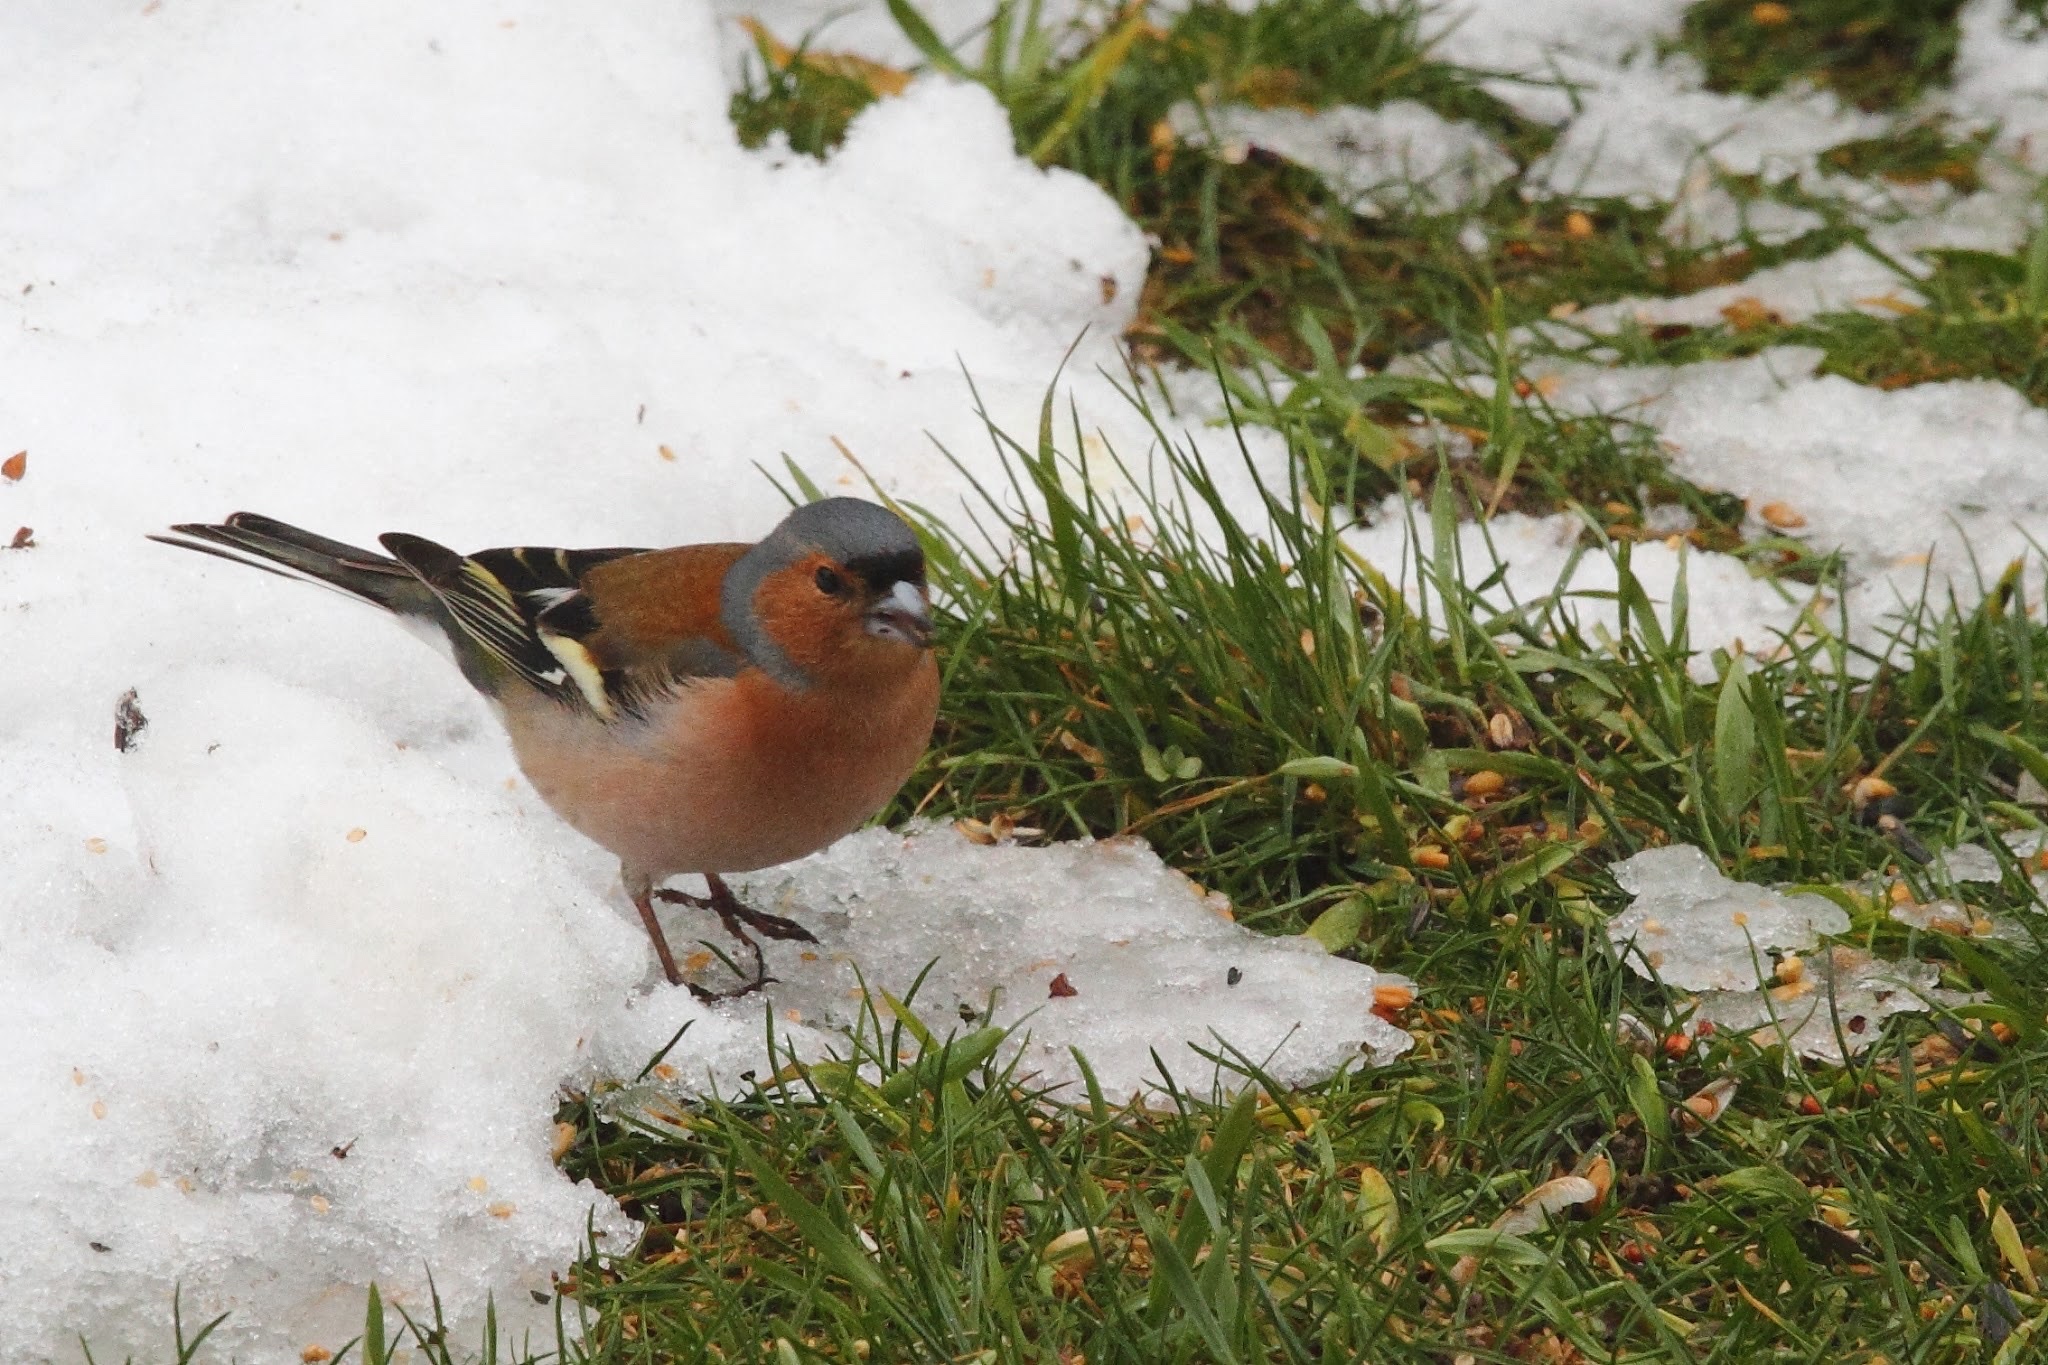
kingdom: Animalia
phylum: Chordata
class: Aves
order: Passeriformes
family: Fringillidae
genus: Fringilla
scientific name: Fringilla coelebs
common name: Common chaffinch
